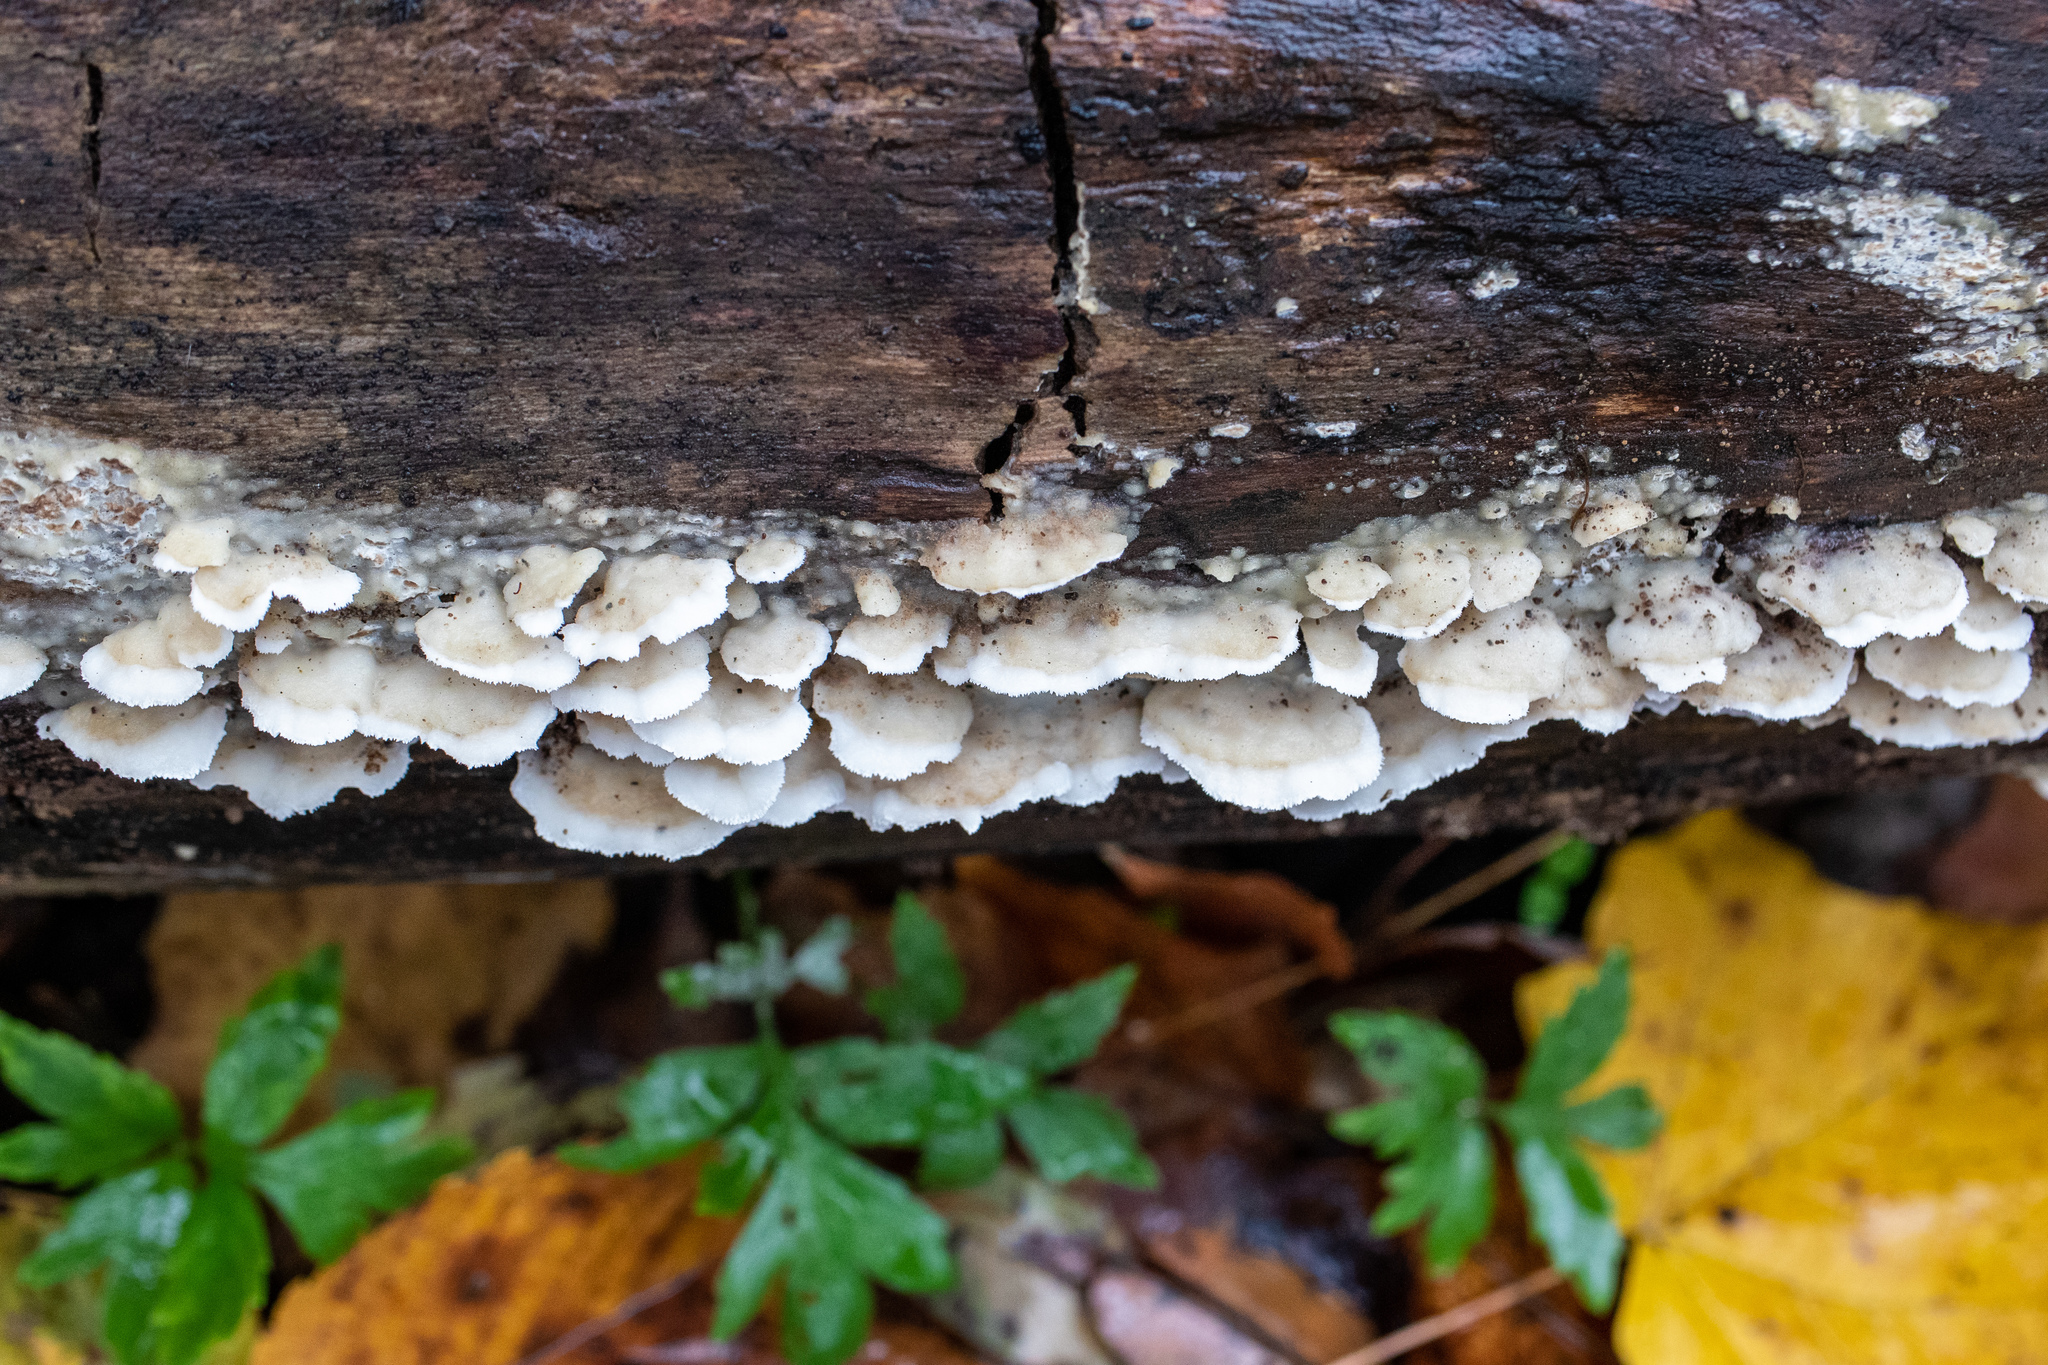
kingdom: Fungi
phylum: Basidiomycota
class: Agaricomycetes
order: Polyporales
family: Irpicaceae
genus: Vitreoporus
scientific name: Vitreoporus dichrous
